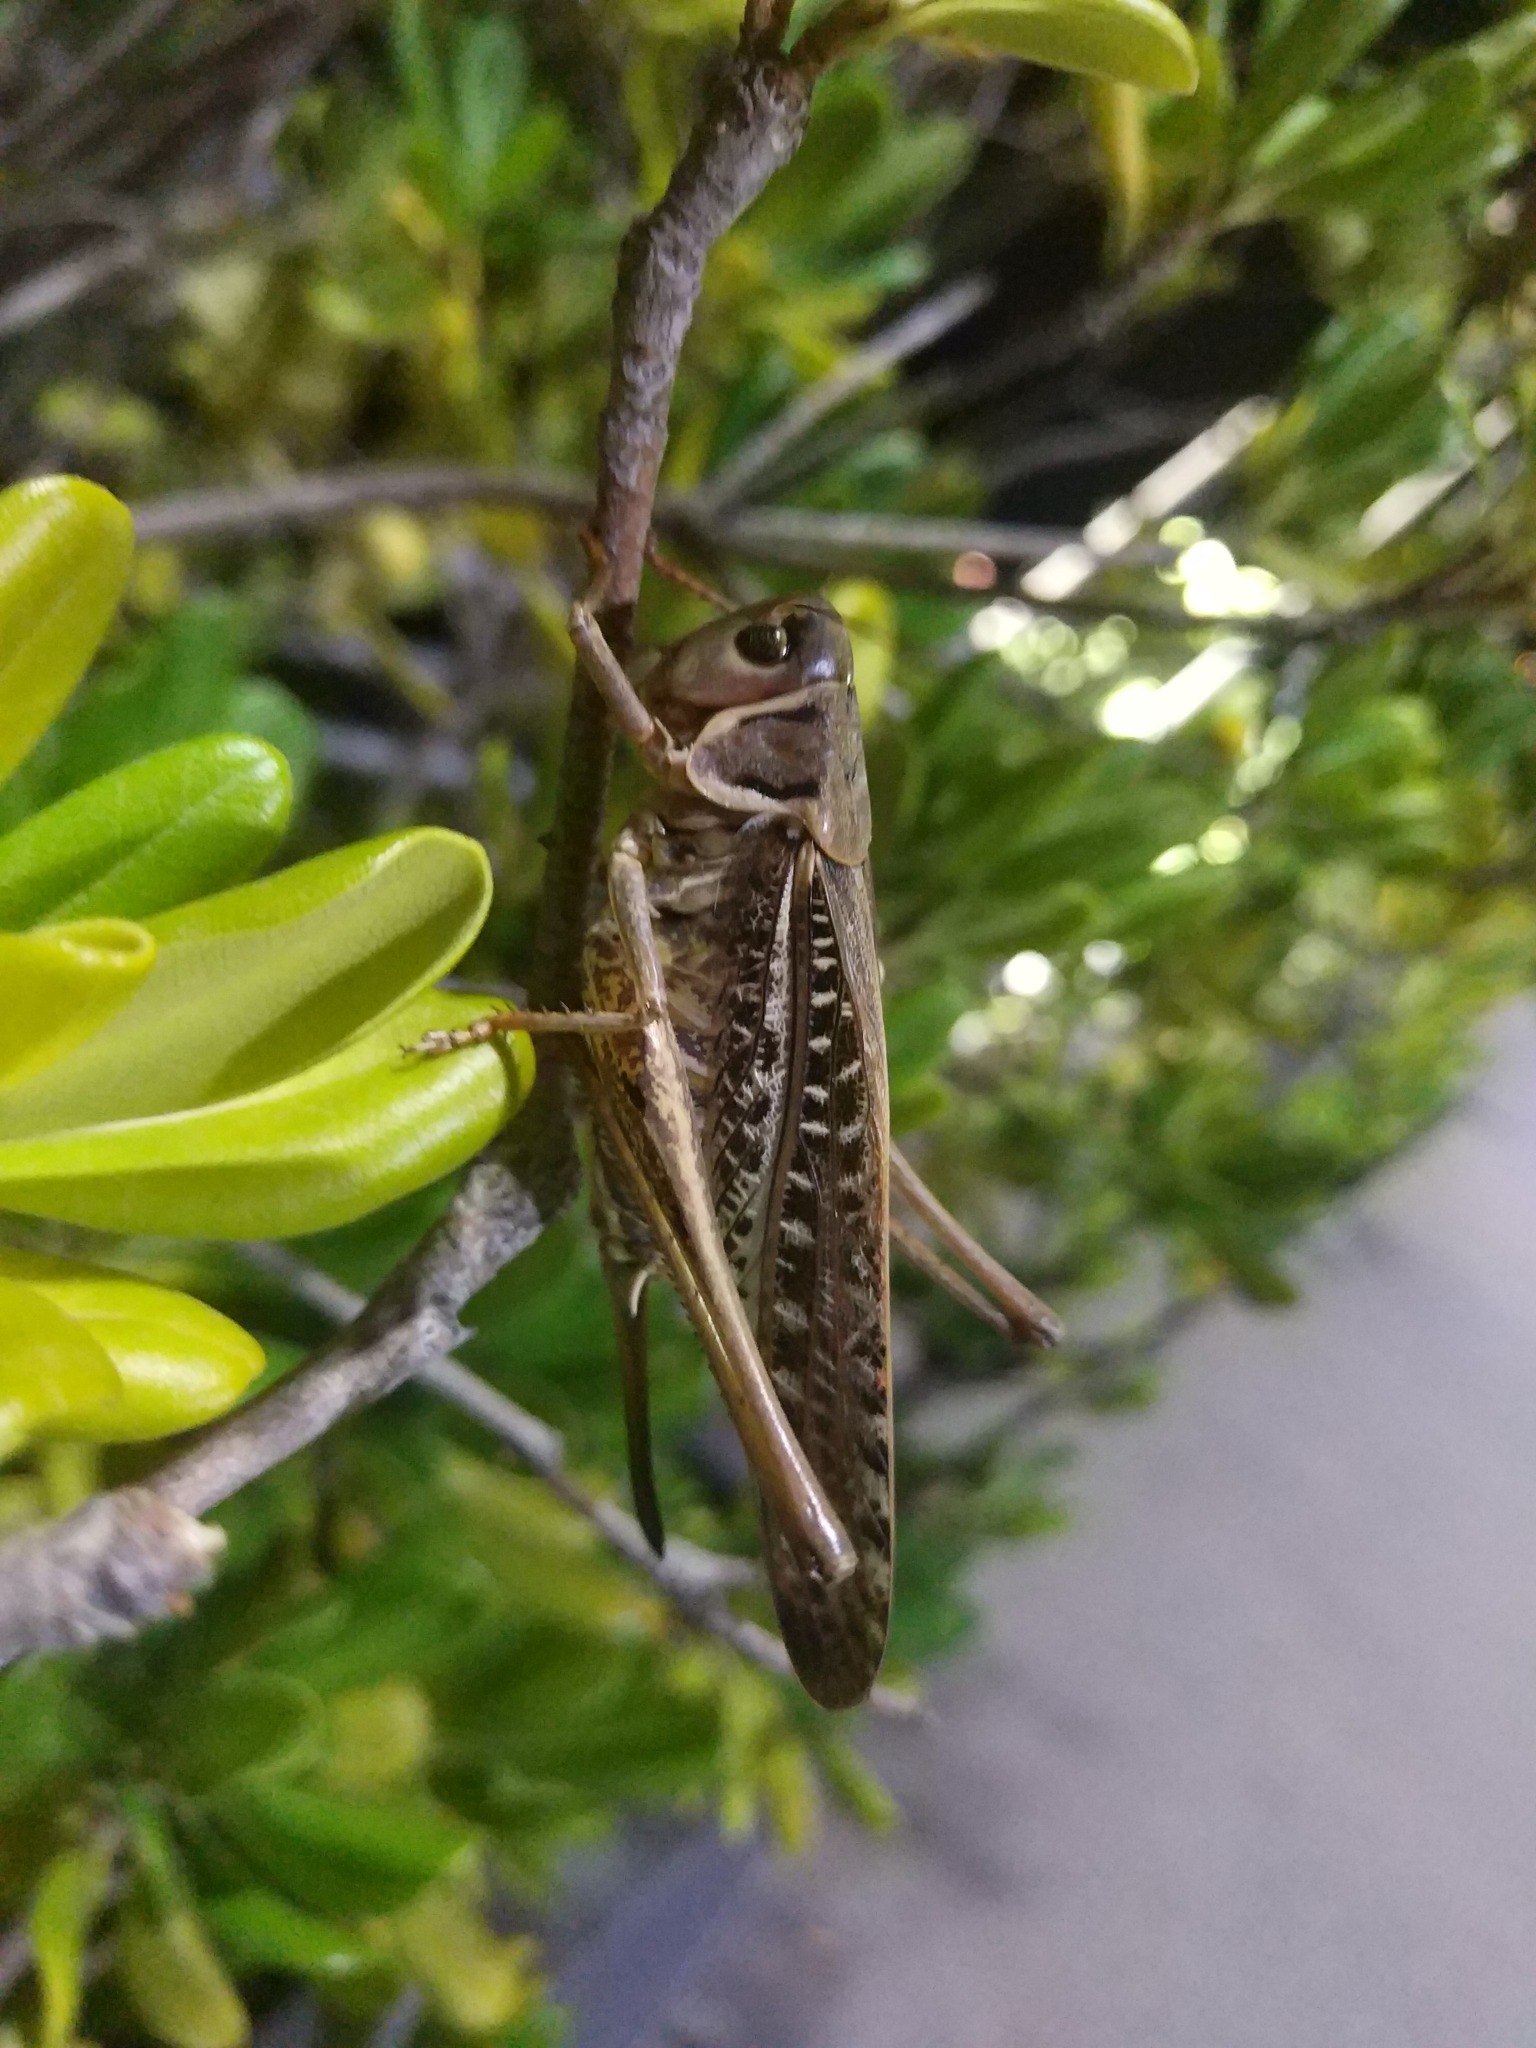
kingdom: Animalia
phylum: Arthropoda
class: Insecta
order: Orthoptera
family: Tettigoniidae
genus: Decticus
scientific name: Decticus albifrons
